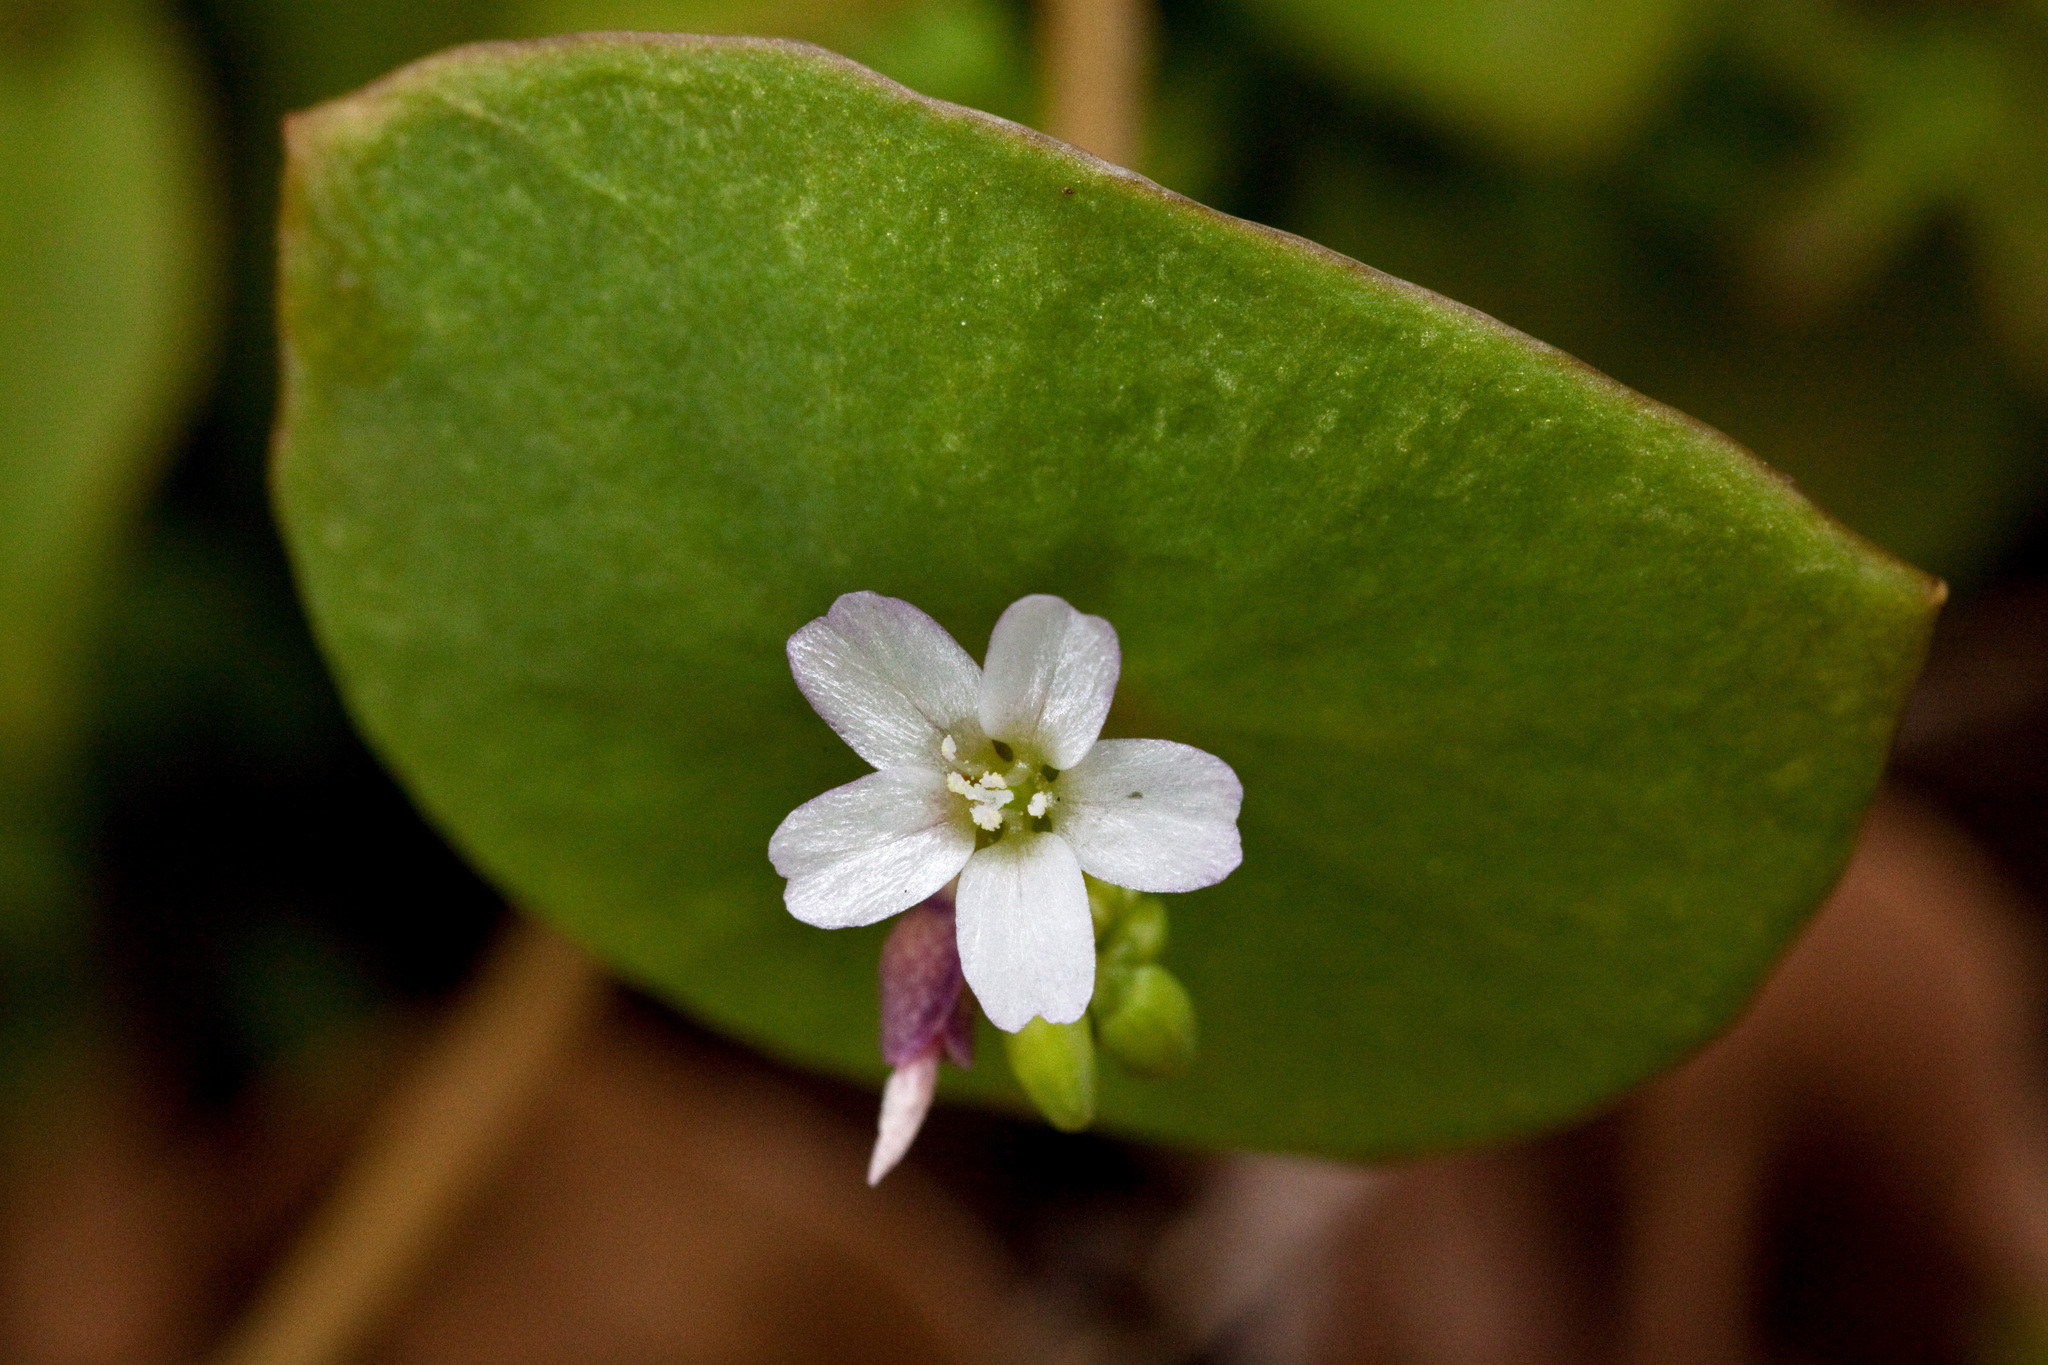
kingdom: Plantae
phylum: Tracheophyta
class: Magnoliopsida
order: Caryophyllales
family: Montiaceae
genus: Claytonia
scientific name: Claytonia perfoliata
